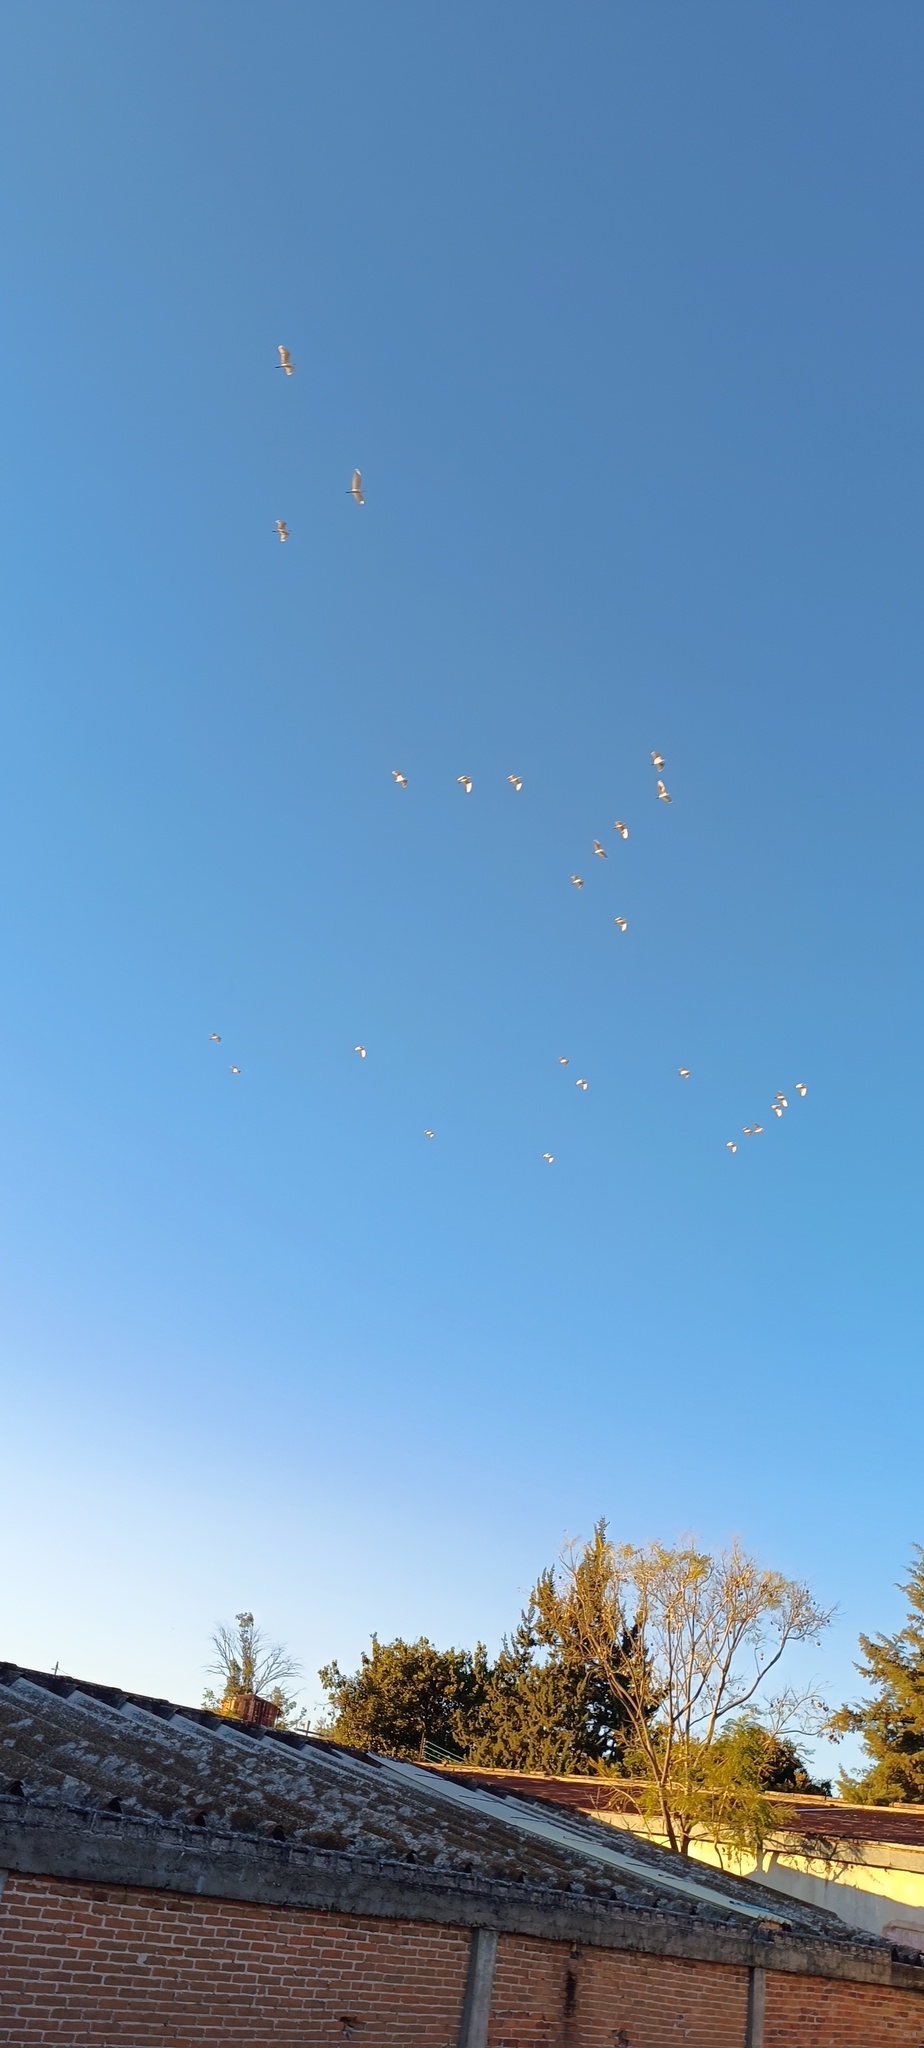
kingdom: Animalia
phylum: Chordata
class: Aves
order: Pelecaniformes
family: Ardeidae
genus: Bubulcus
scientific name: Bubulcus ibis
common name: Cattle egret
